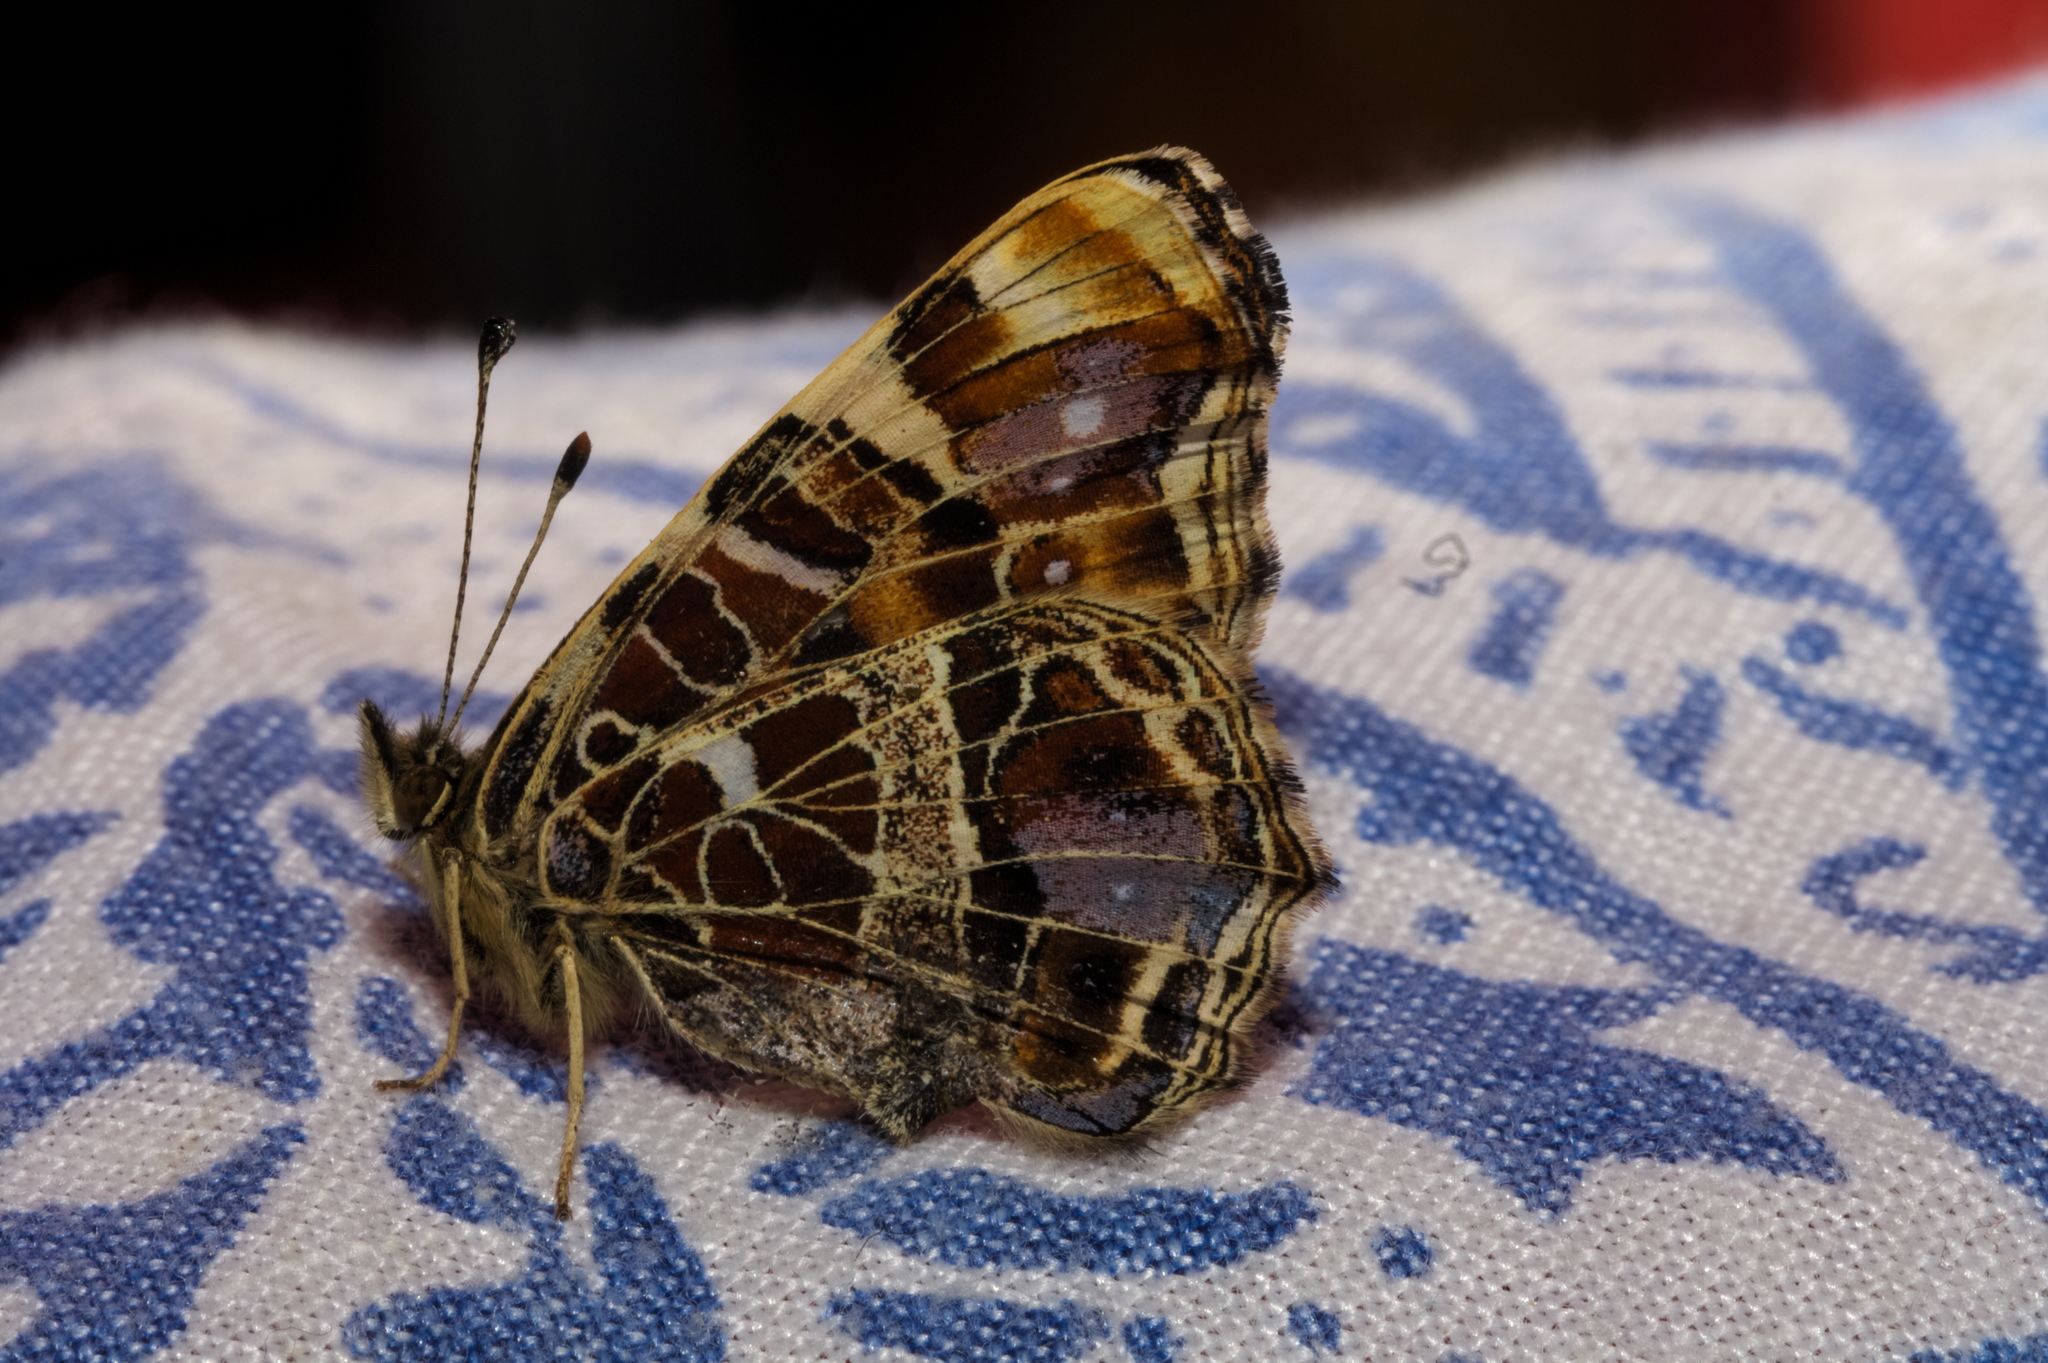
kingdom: Animalia
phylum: Arthropoda
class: Insecta
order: Lepidoptera
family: Nymphalidae
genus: Araschnia
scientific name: Araschnia levana
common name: Map butterfly
